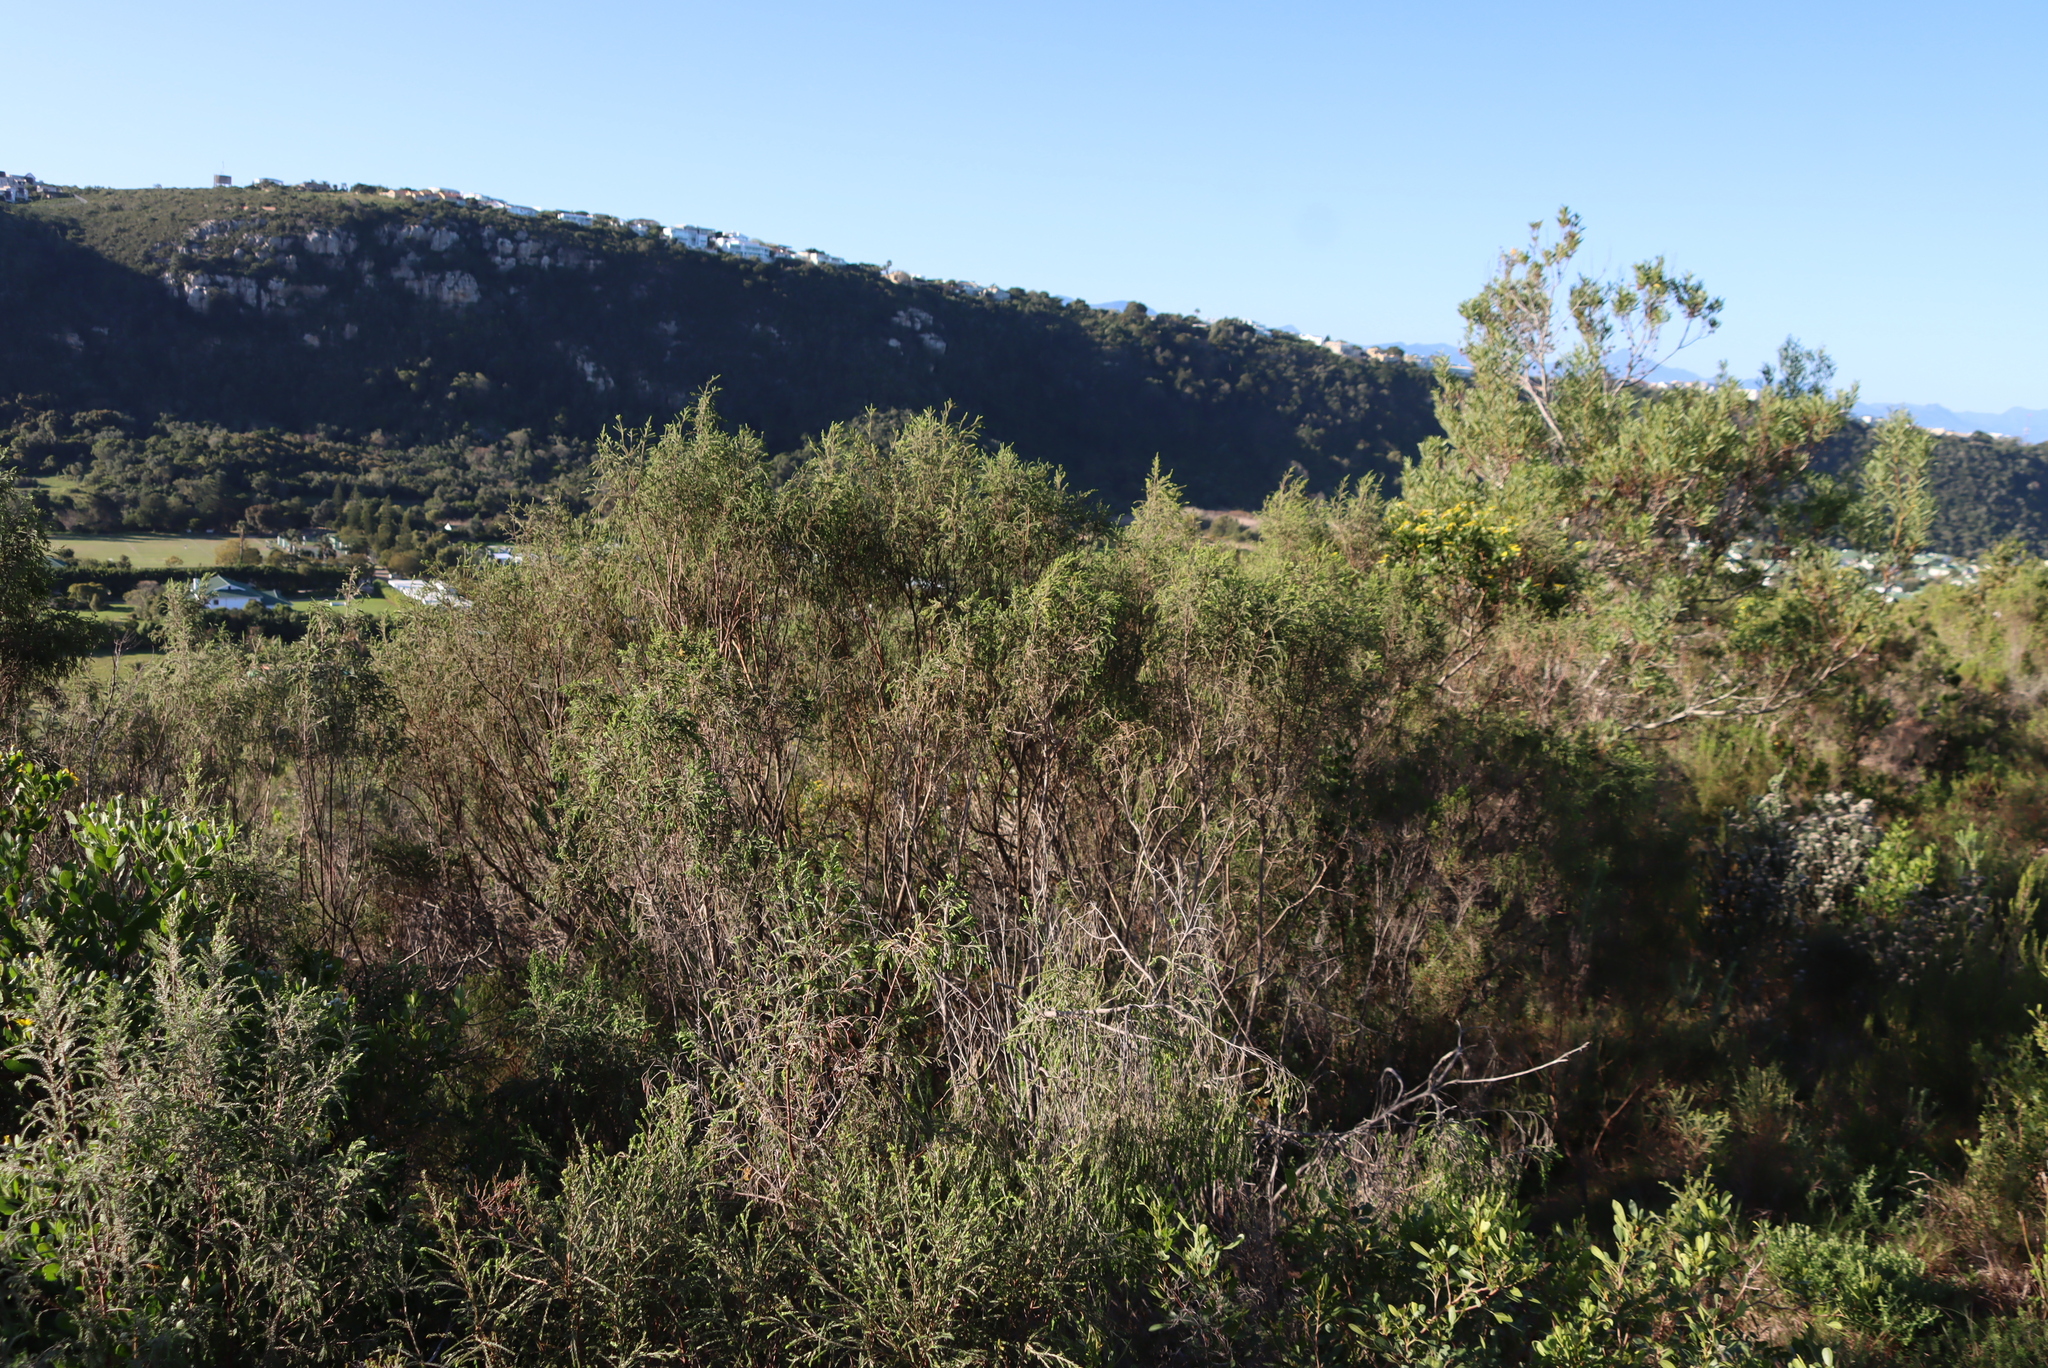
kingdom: Plantae
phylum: Tracheophyta
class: Magnoliopsida
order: Malvales
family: Thymelaeaceae
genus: Passerina
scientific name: Passerina falcifolia
